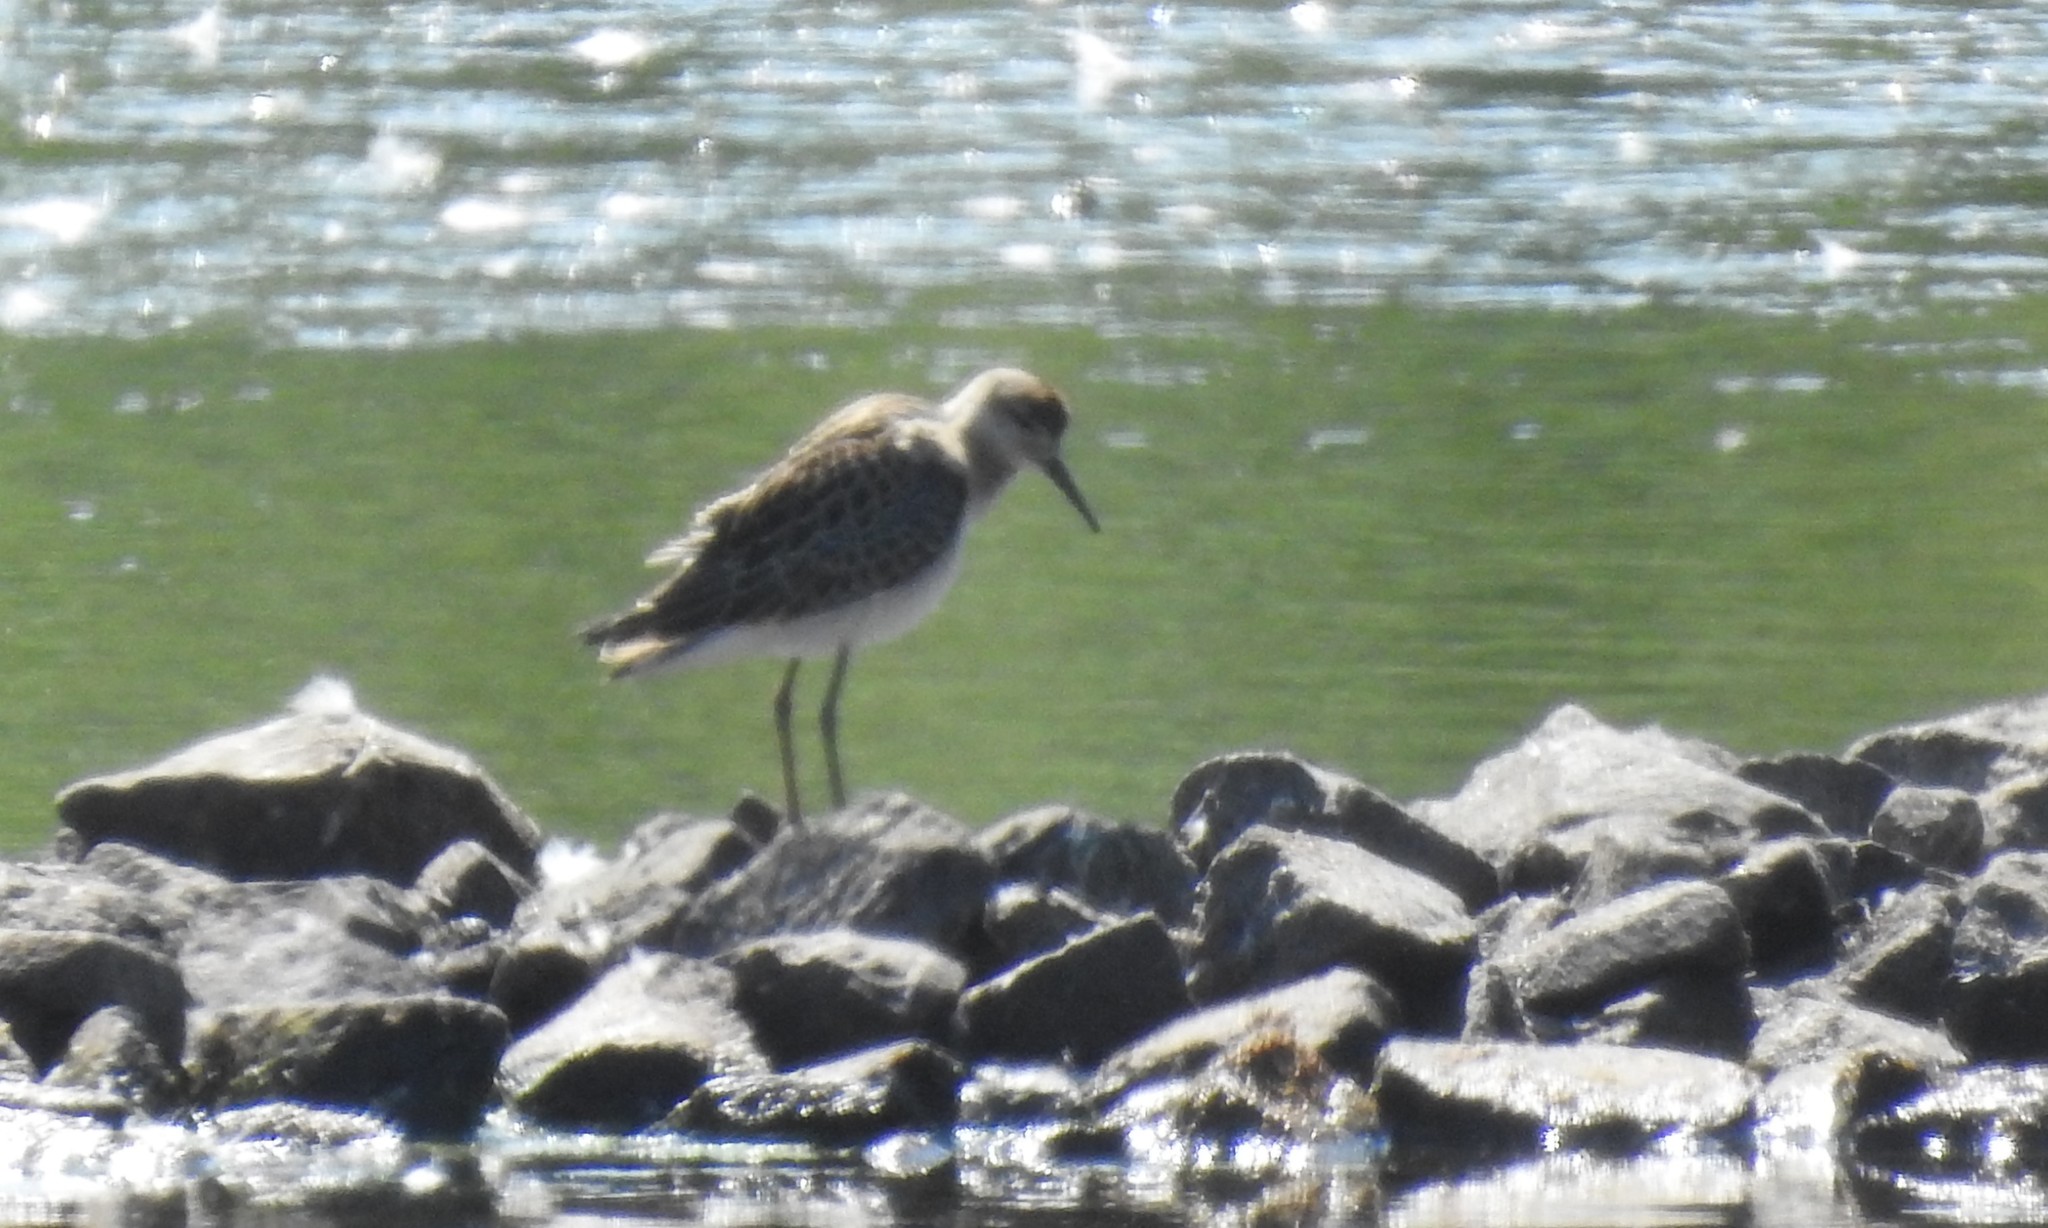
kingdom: Animalia
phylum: Chordata
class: Aves
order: Charadriiformes
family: Scolopacidae
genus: Calidris
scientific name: Calidris pugnax
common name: Ruff
